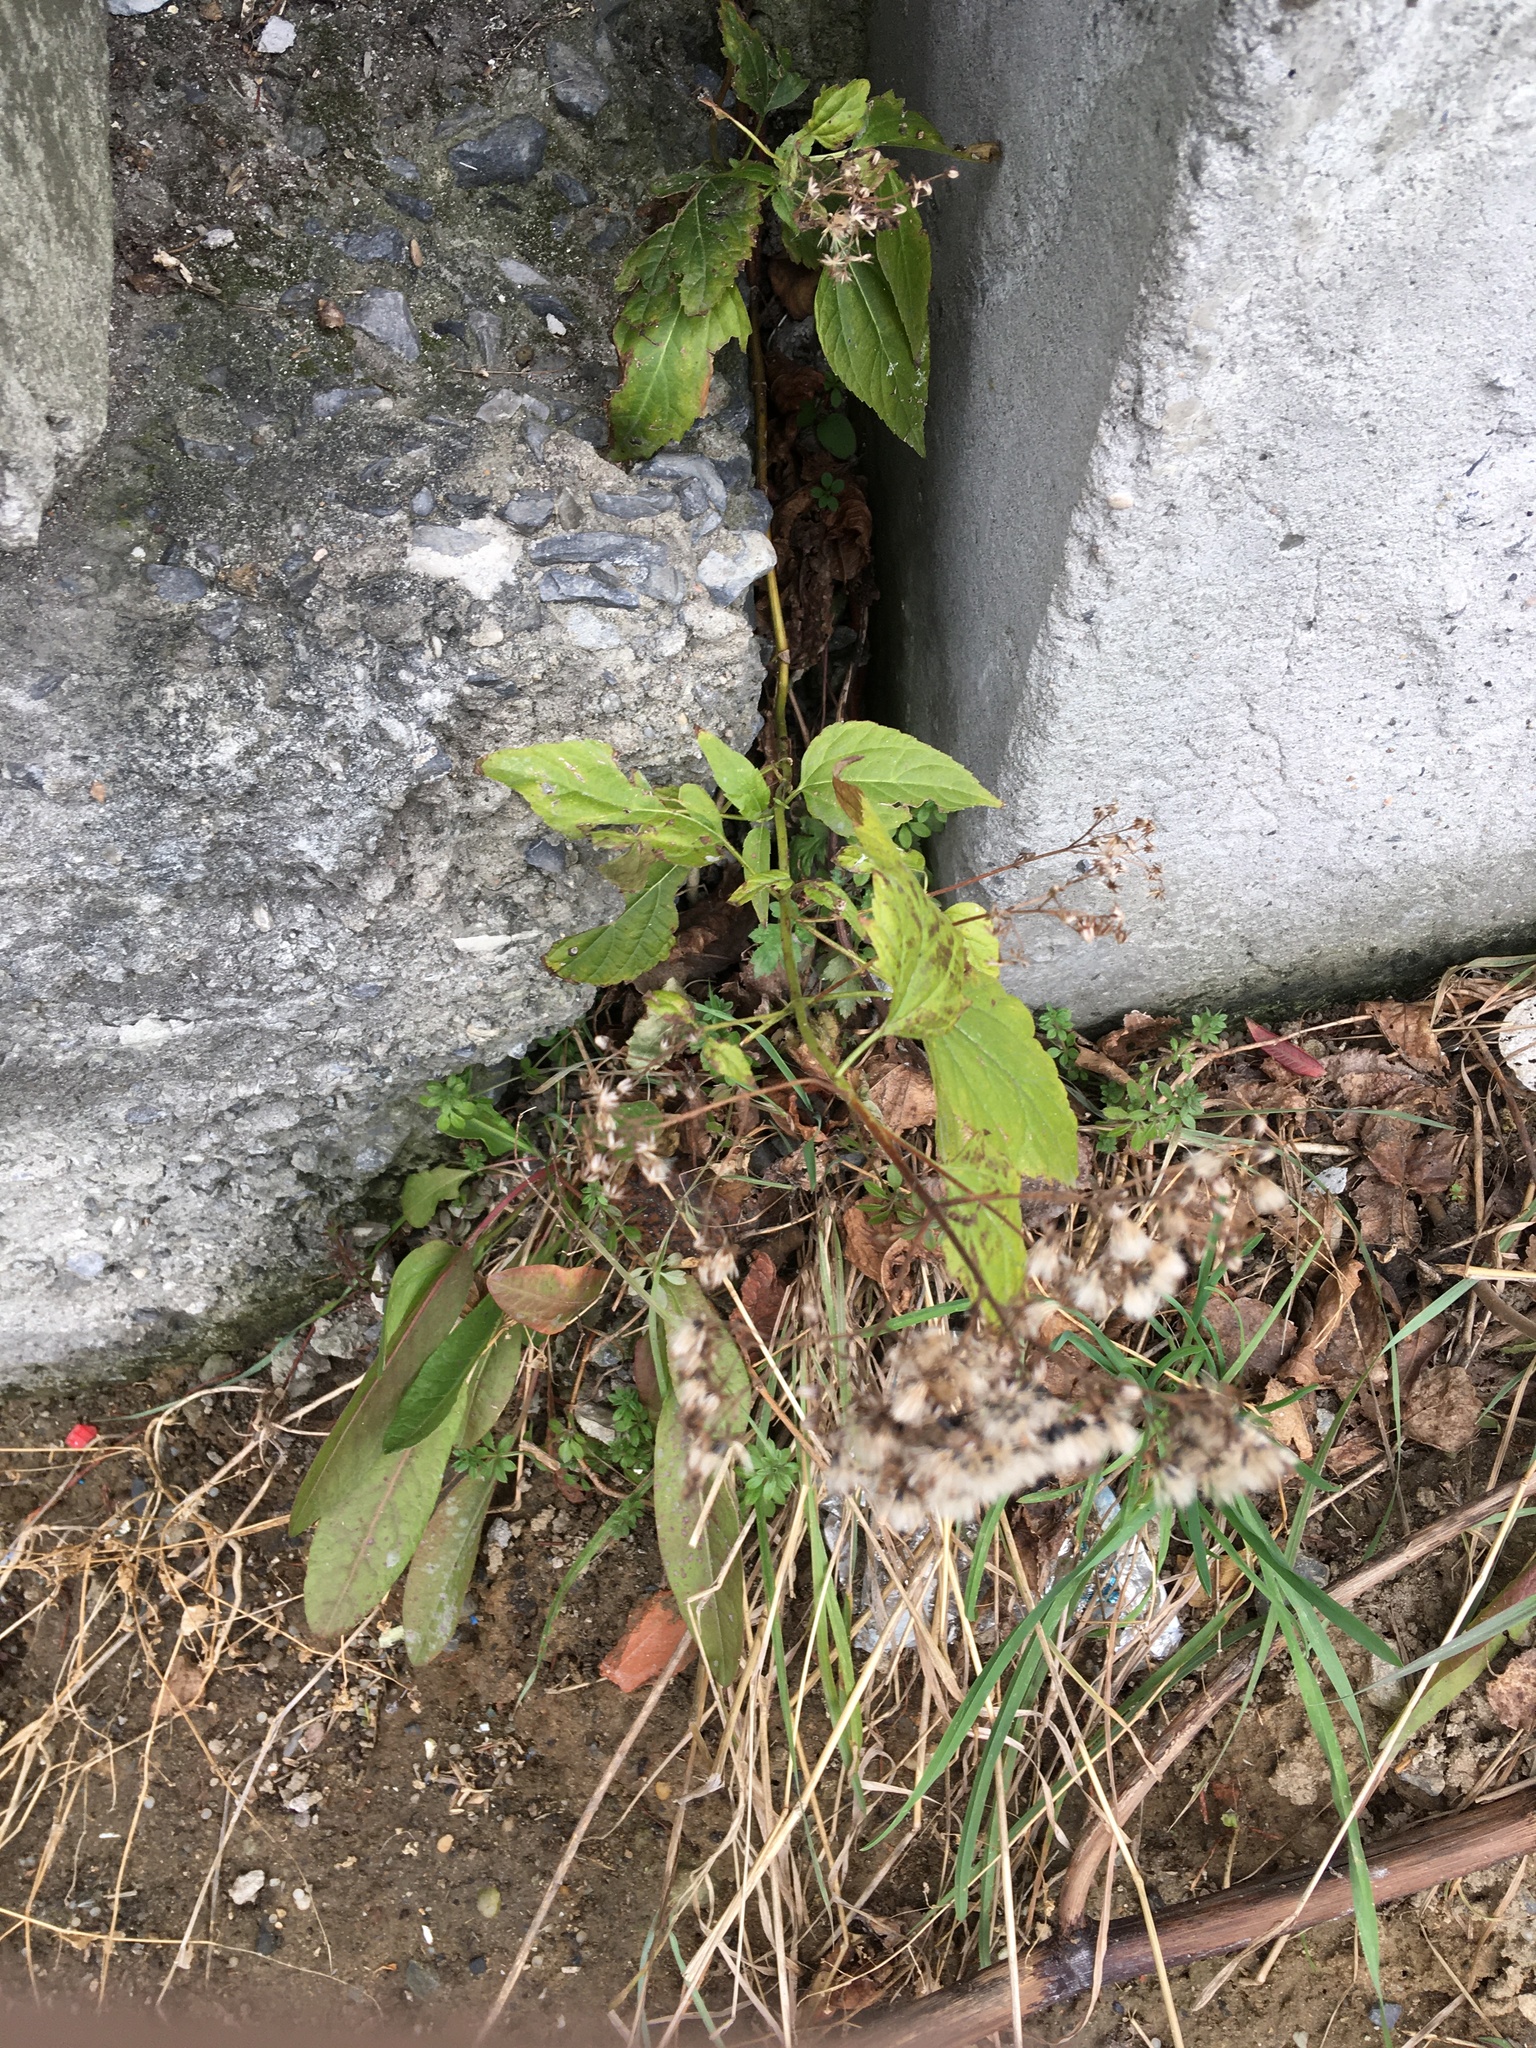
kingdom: Plantae
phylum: Tracheophyta
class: Magnoliopsida
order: Asterales
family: Asteraceae
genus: Ageratina
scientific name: Ageratina altissima
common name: White snakeroot
